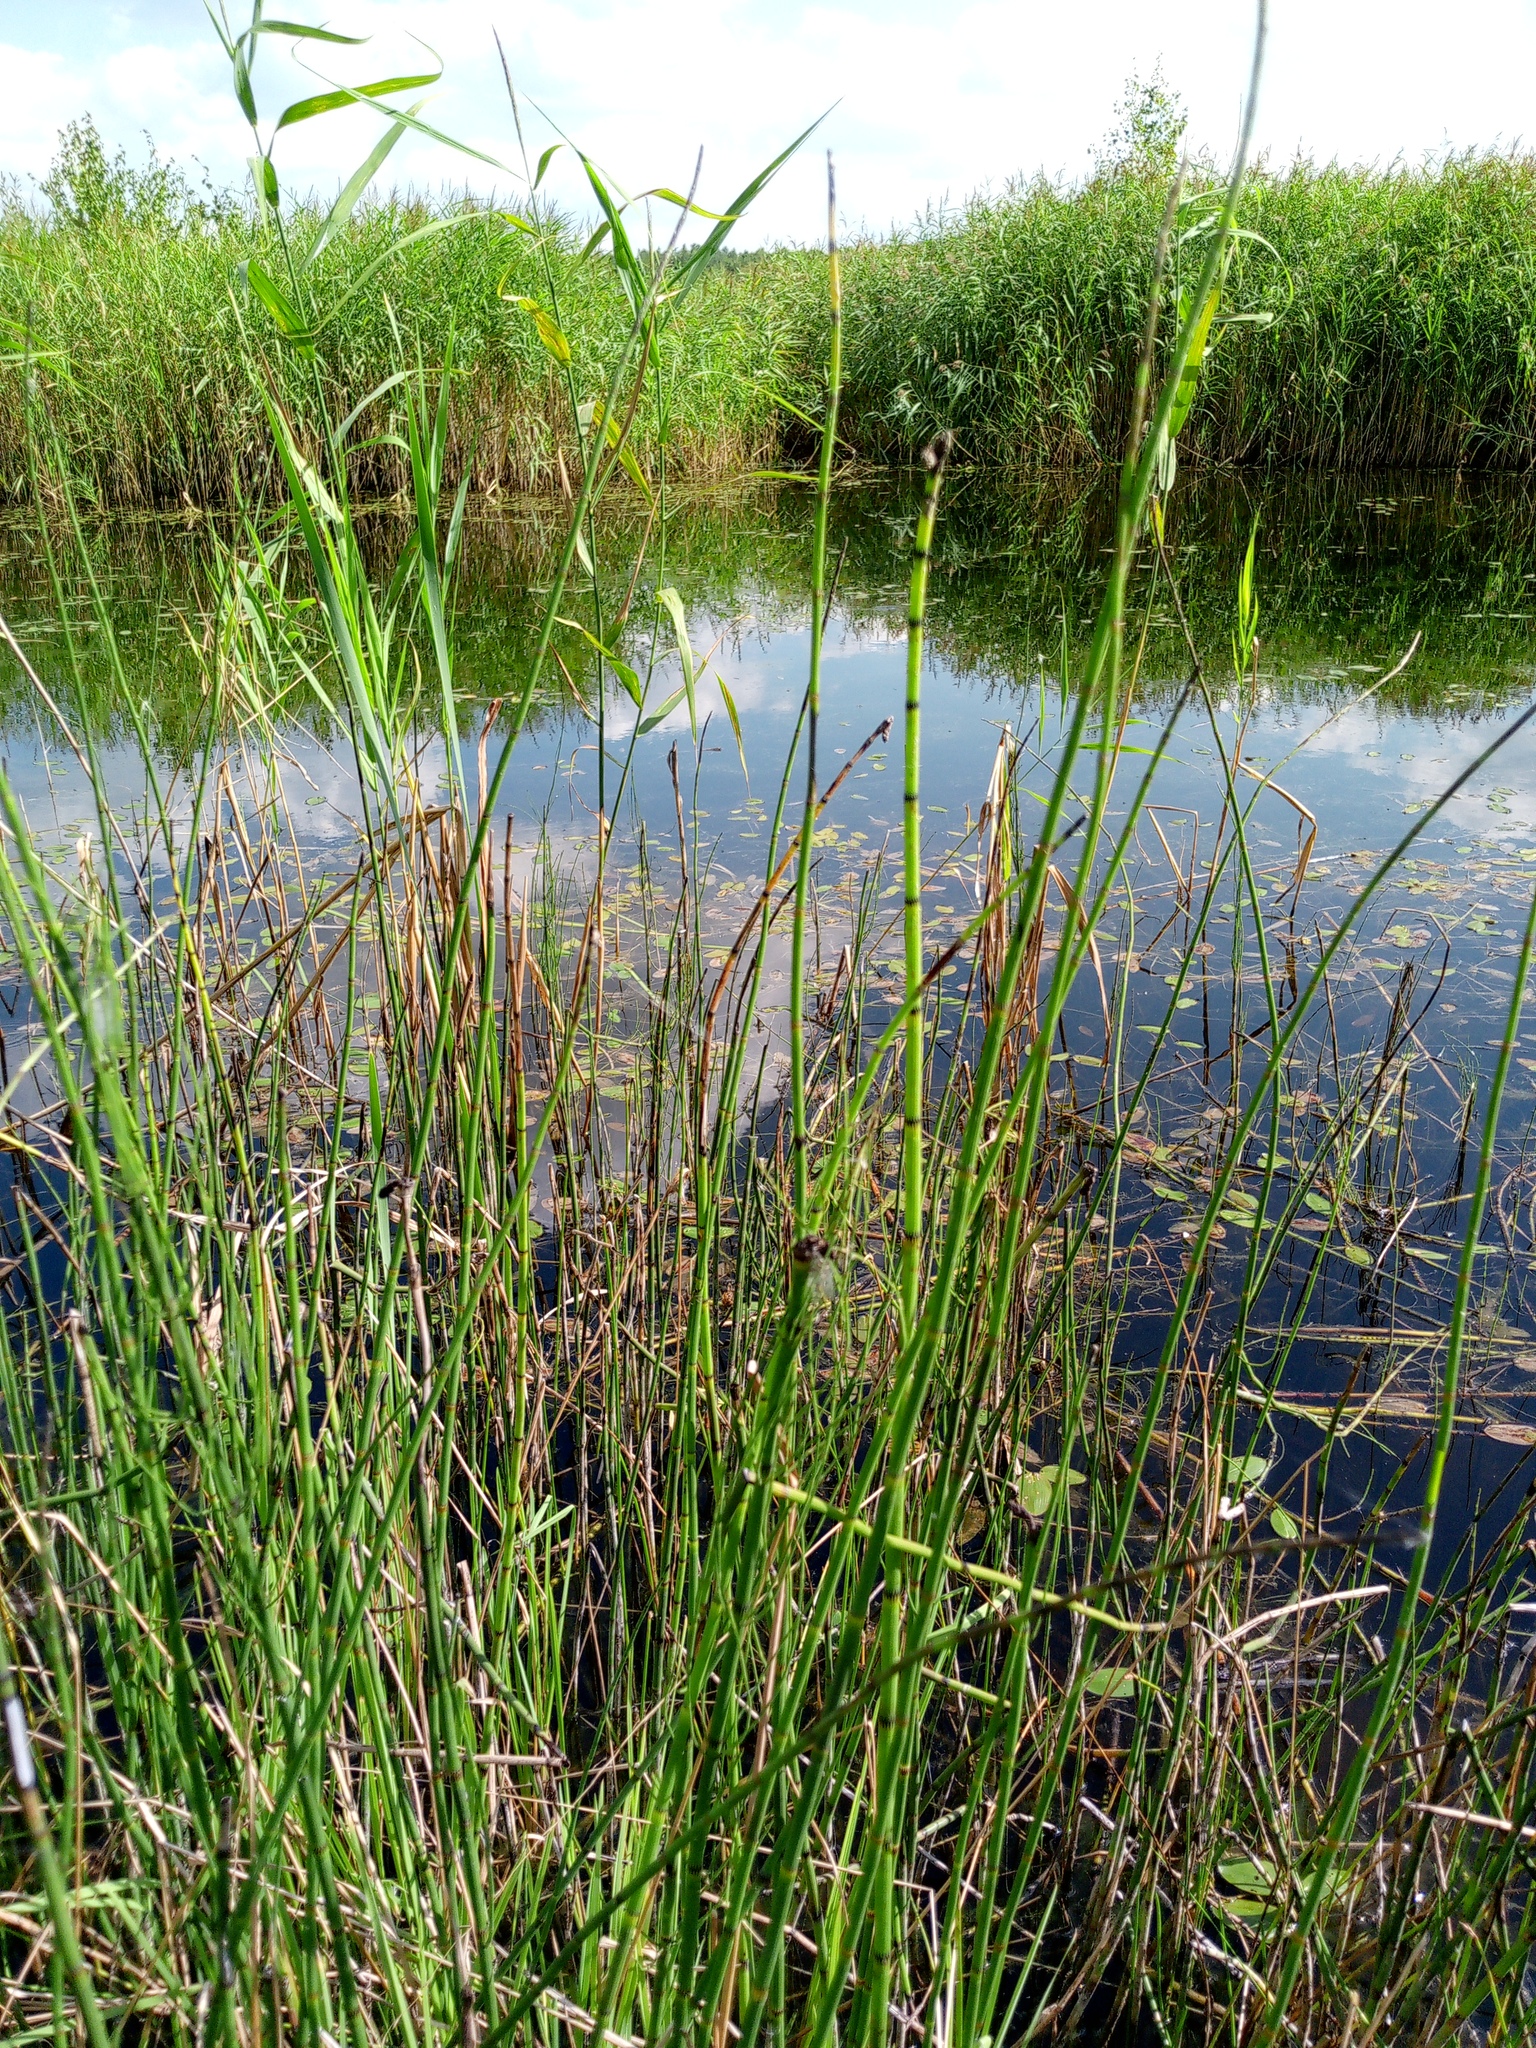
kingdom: Plantae
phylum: Tracheophyta
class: Polypodiopsida
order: Equisetales
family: Equisetaceae
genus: Equisetum
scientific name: Equisetum fluviatile
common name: Water horsetail
